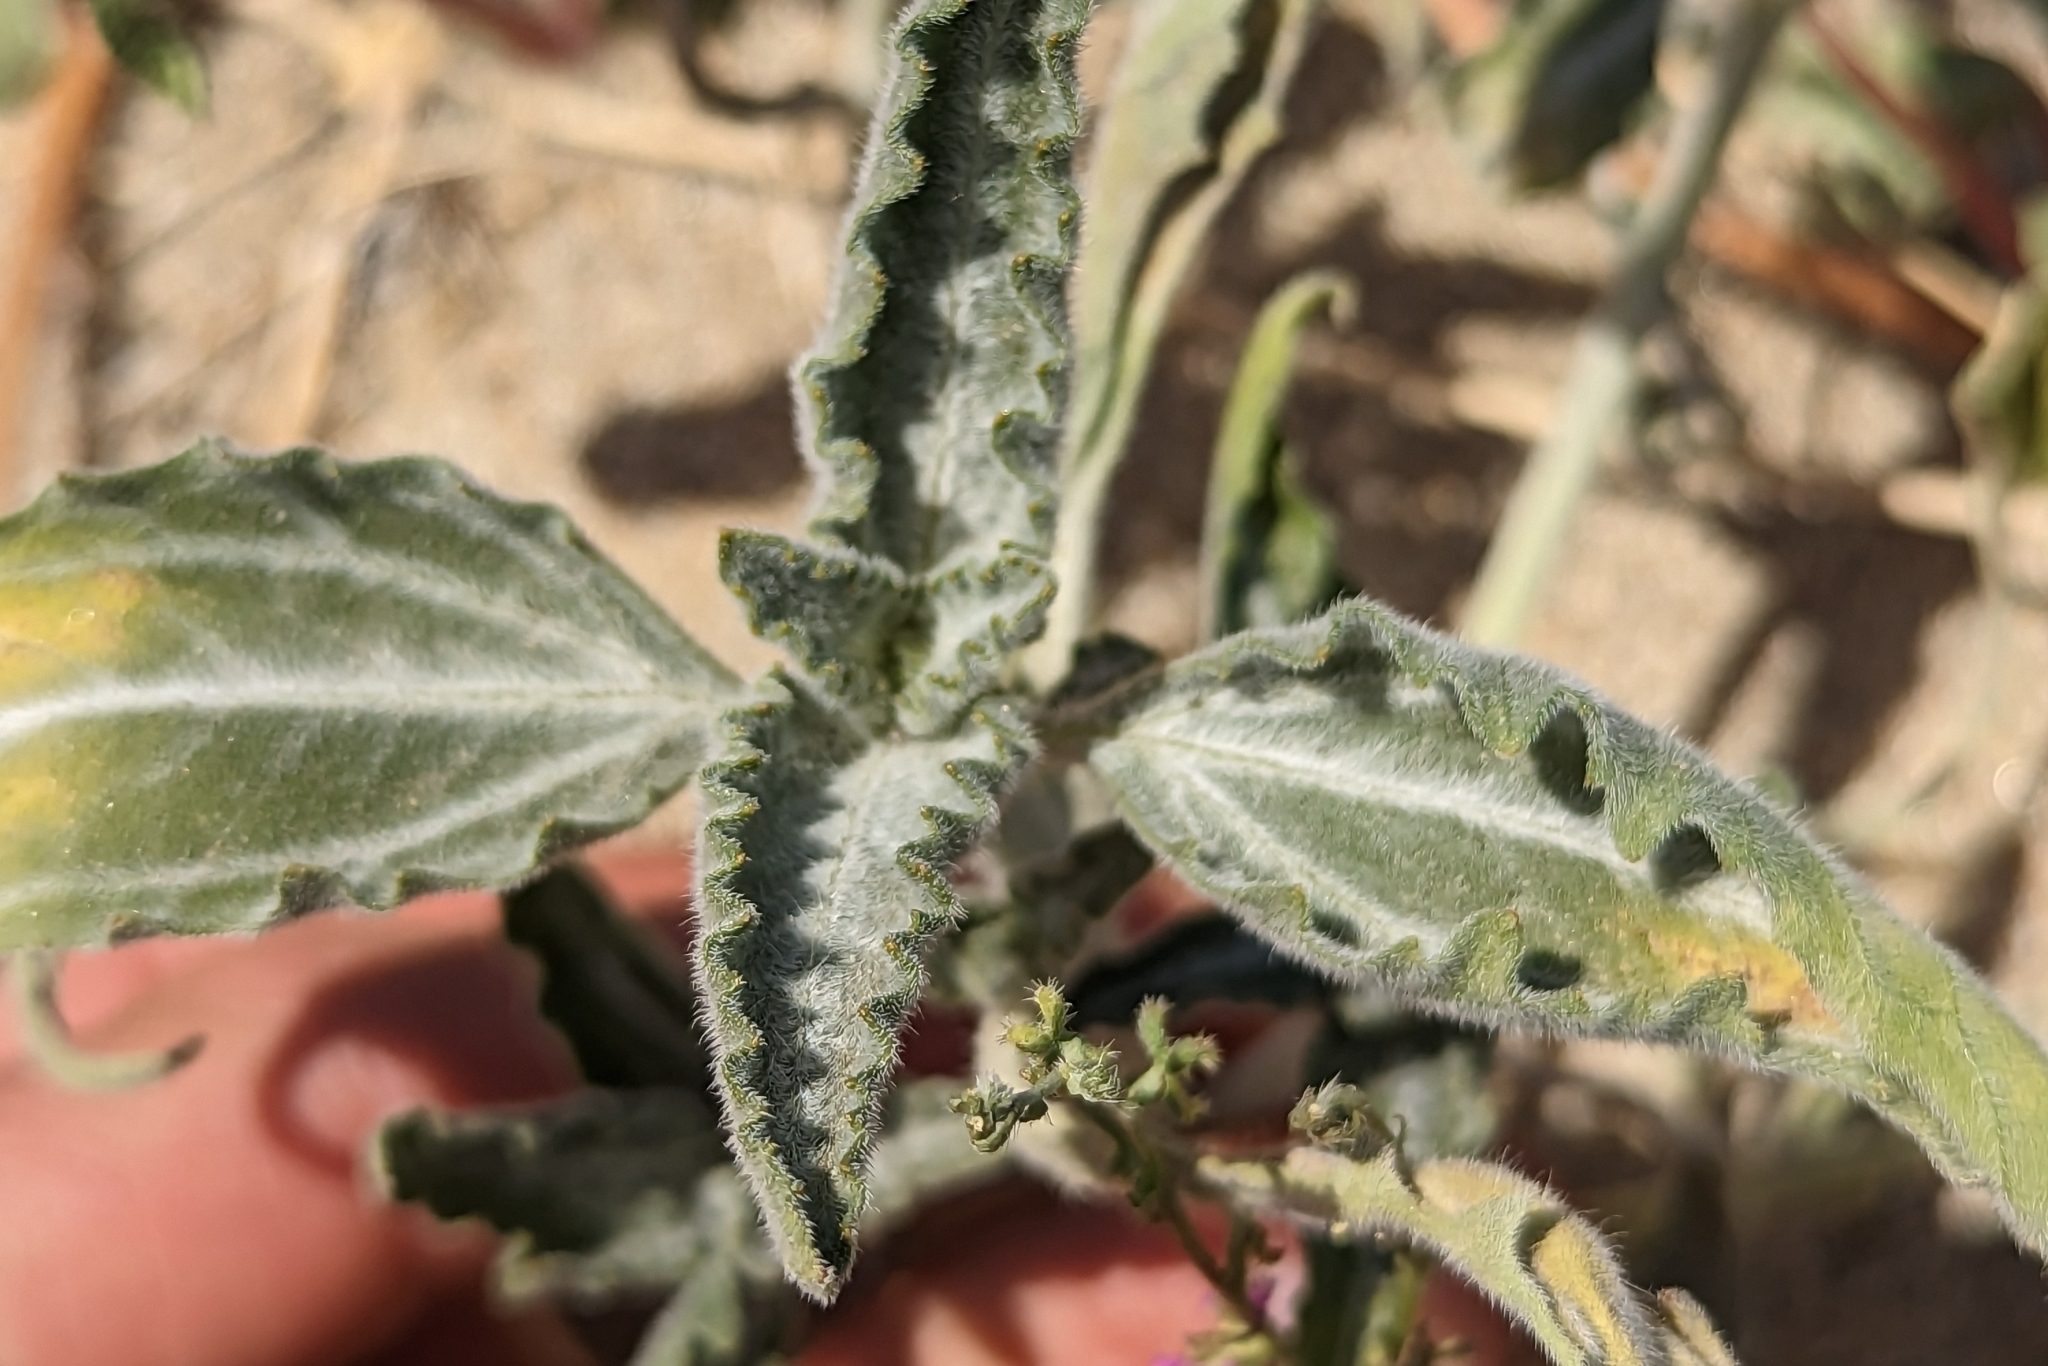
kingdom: Plantae
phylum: Tracheophyta
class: Magnoliopsida
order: Asterales
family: Asteraceae
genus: Dicoria
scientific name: Dicoria canescens
